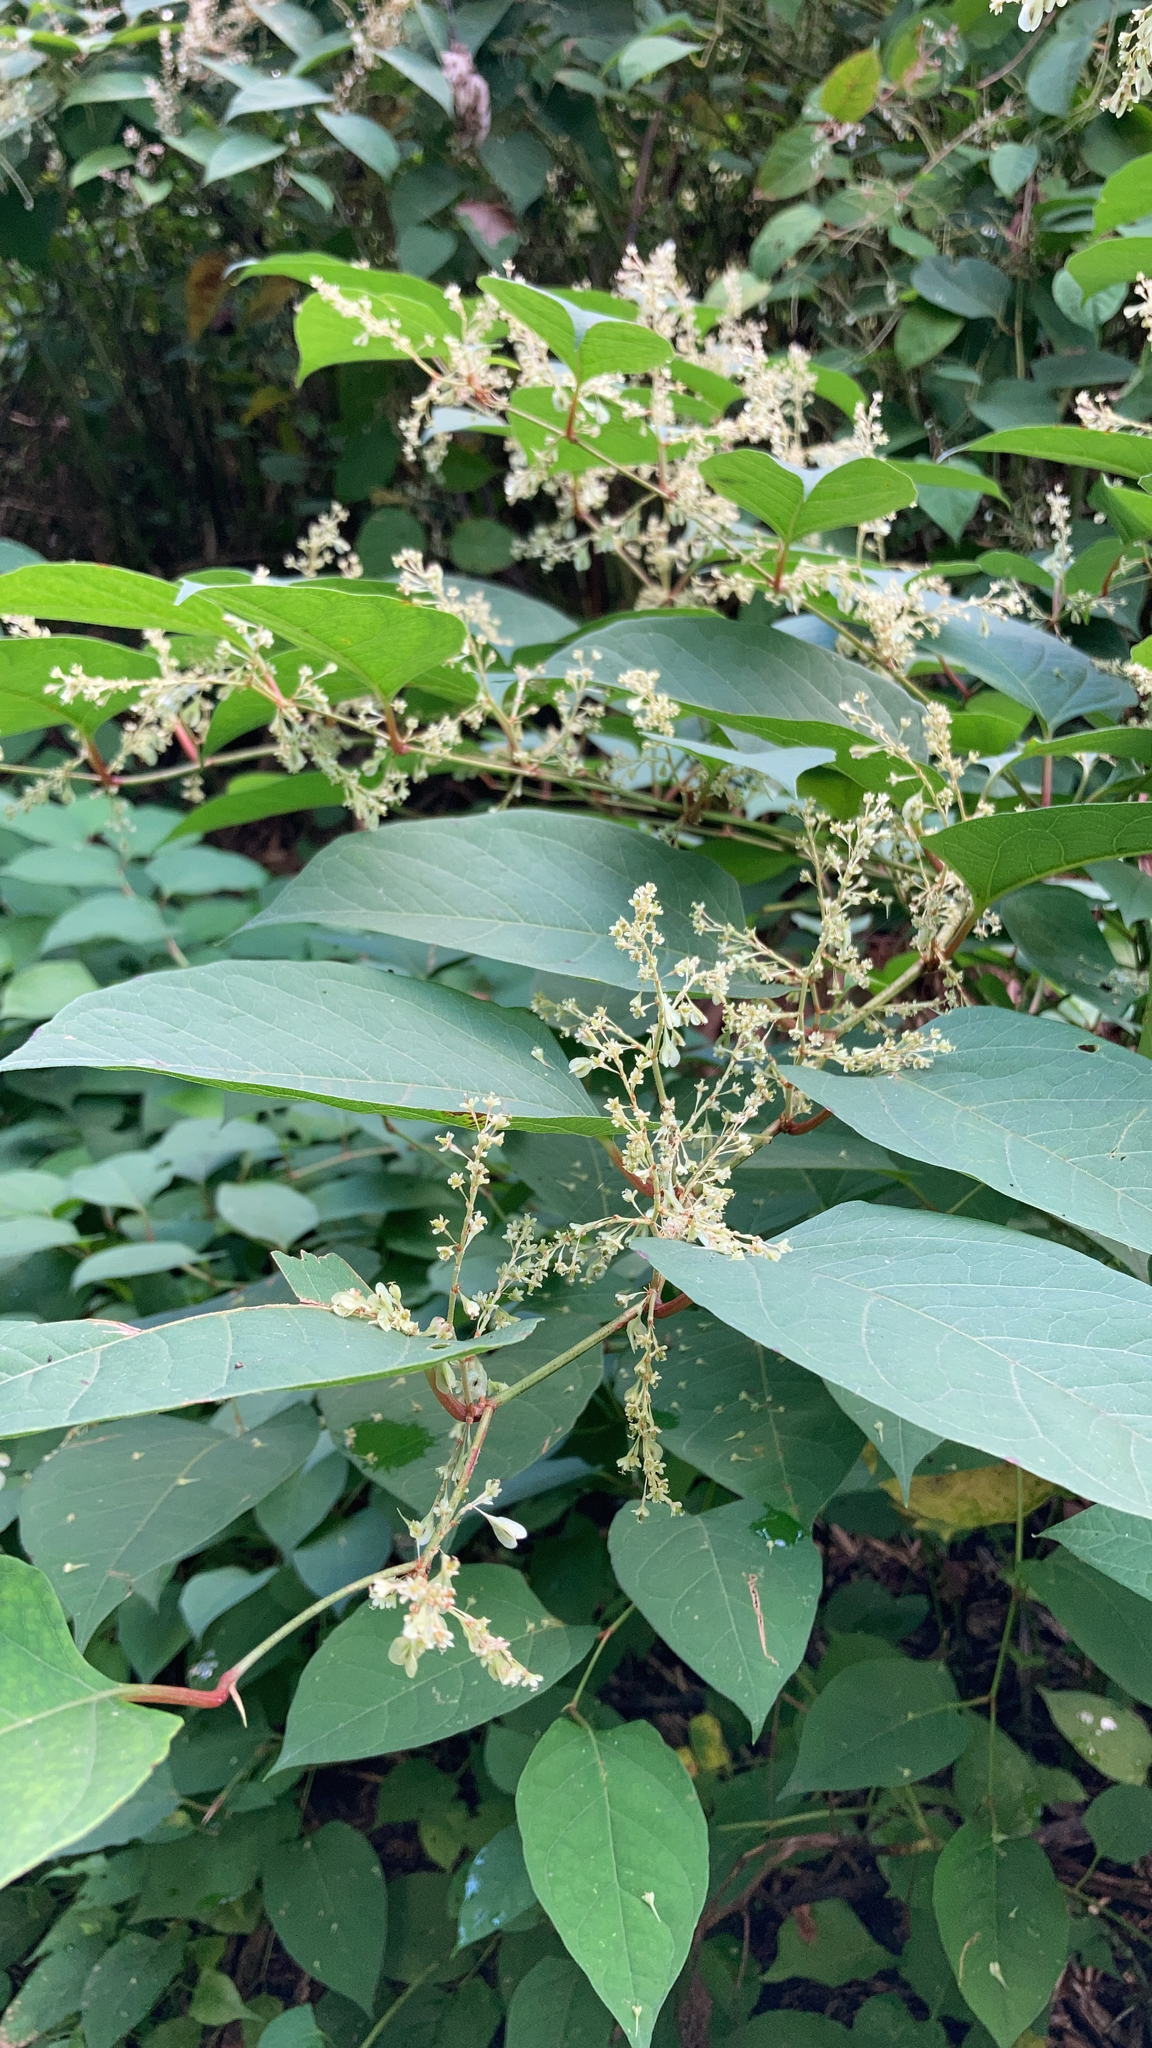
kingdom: Plantae
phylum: Tracheophyta
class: Magnoliopsida
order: Caryophyllales
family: Polygonaceae
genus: Reynoutria
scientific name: Reynoutria japonica
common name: Japanese knotweed
